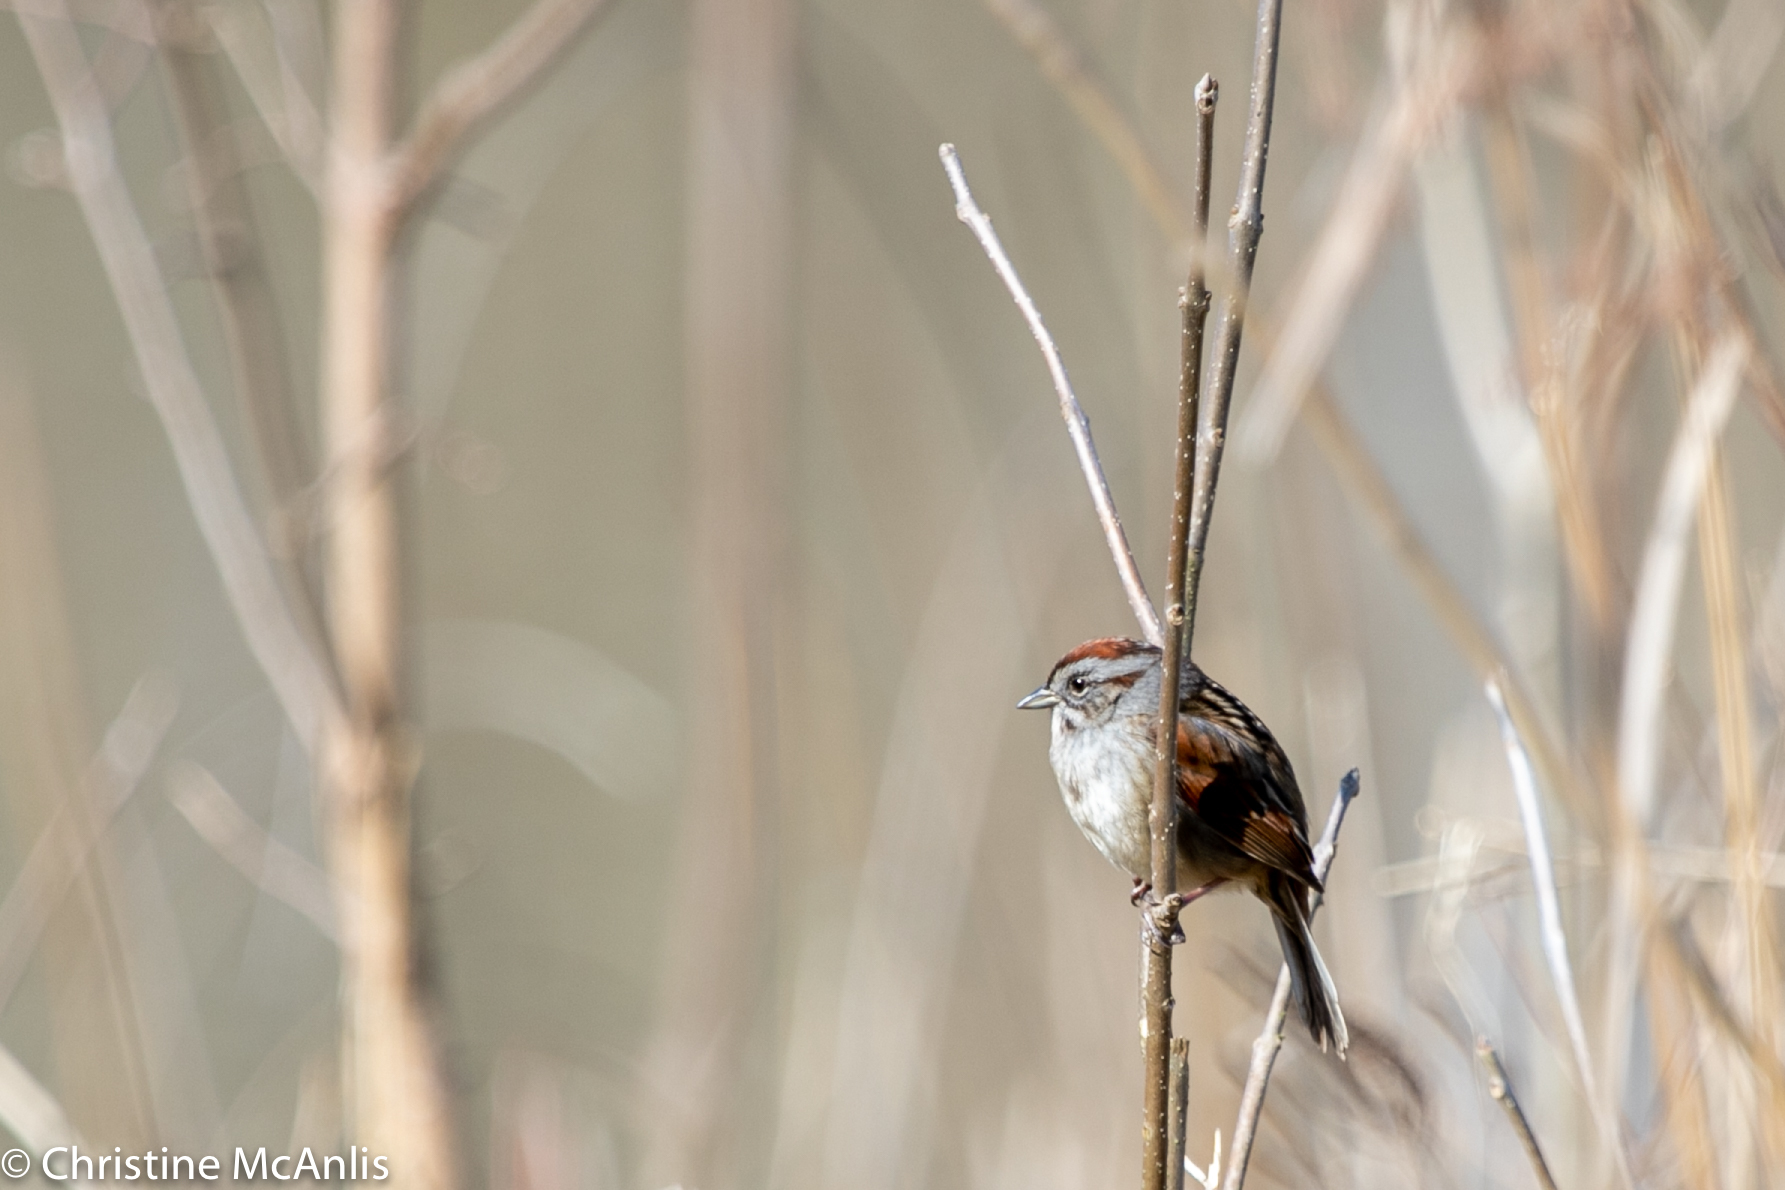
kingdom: Animalia
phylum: Chordata
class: Aves
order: Passeriformes
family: Passerellidae
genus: Melospiza
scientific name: Melospiza georgiana
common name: Swamp sparrow
